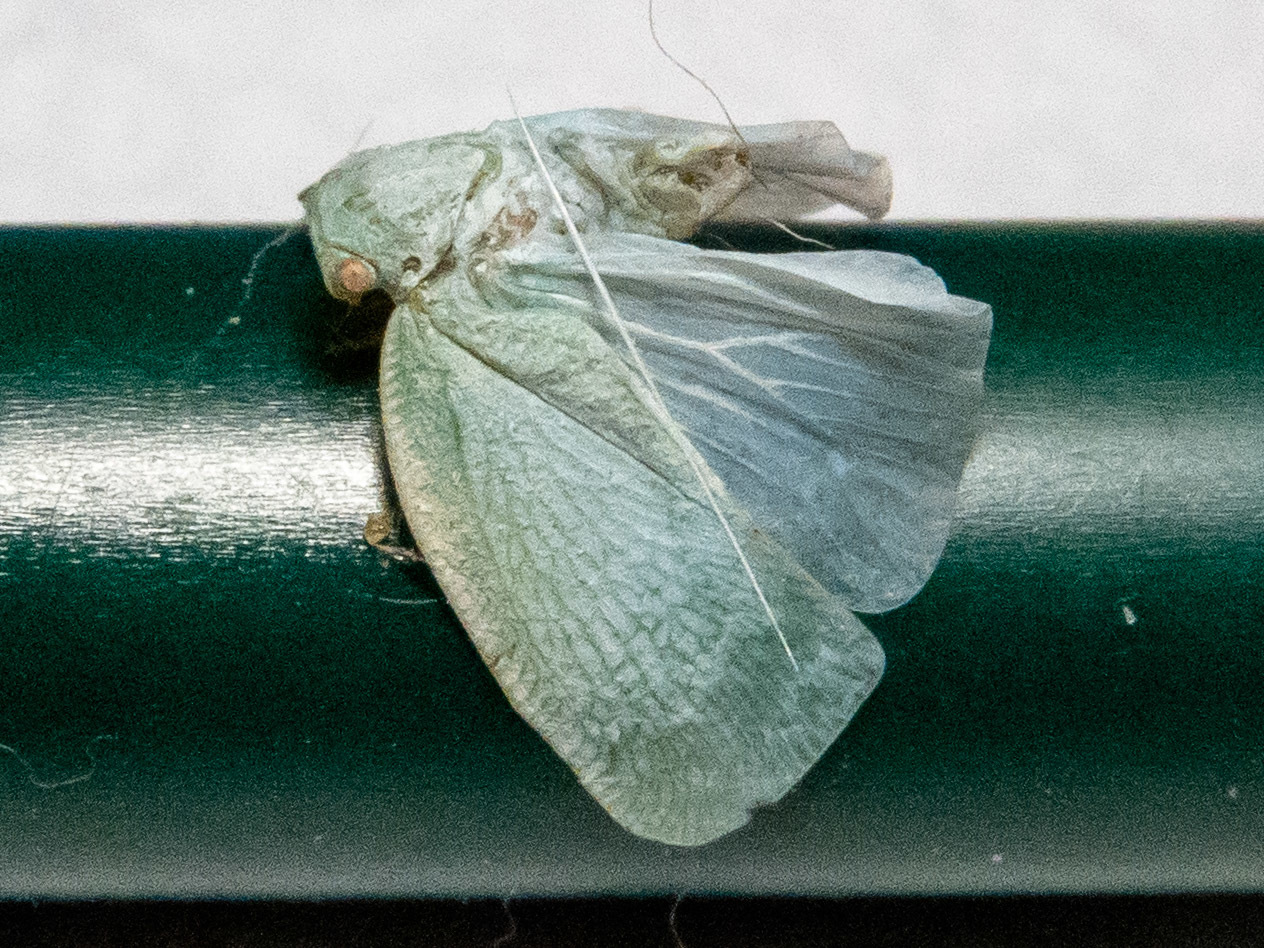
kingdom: Animalia
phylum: Arthropoda
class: Insecta
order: Hemiptera
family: Flatidae
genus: Flatormenis
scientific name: Flatormenis proxima
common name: Northern flatid planthopper
